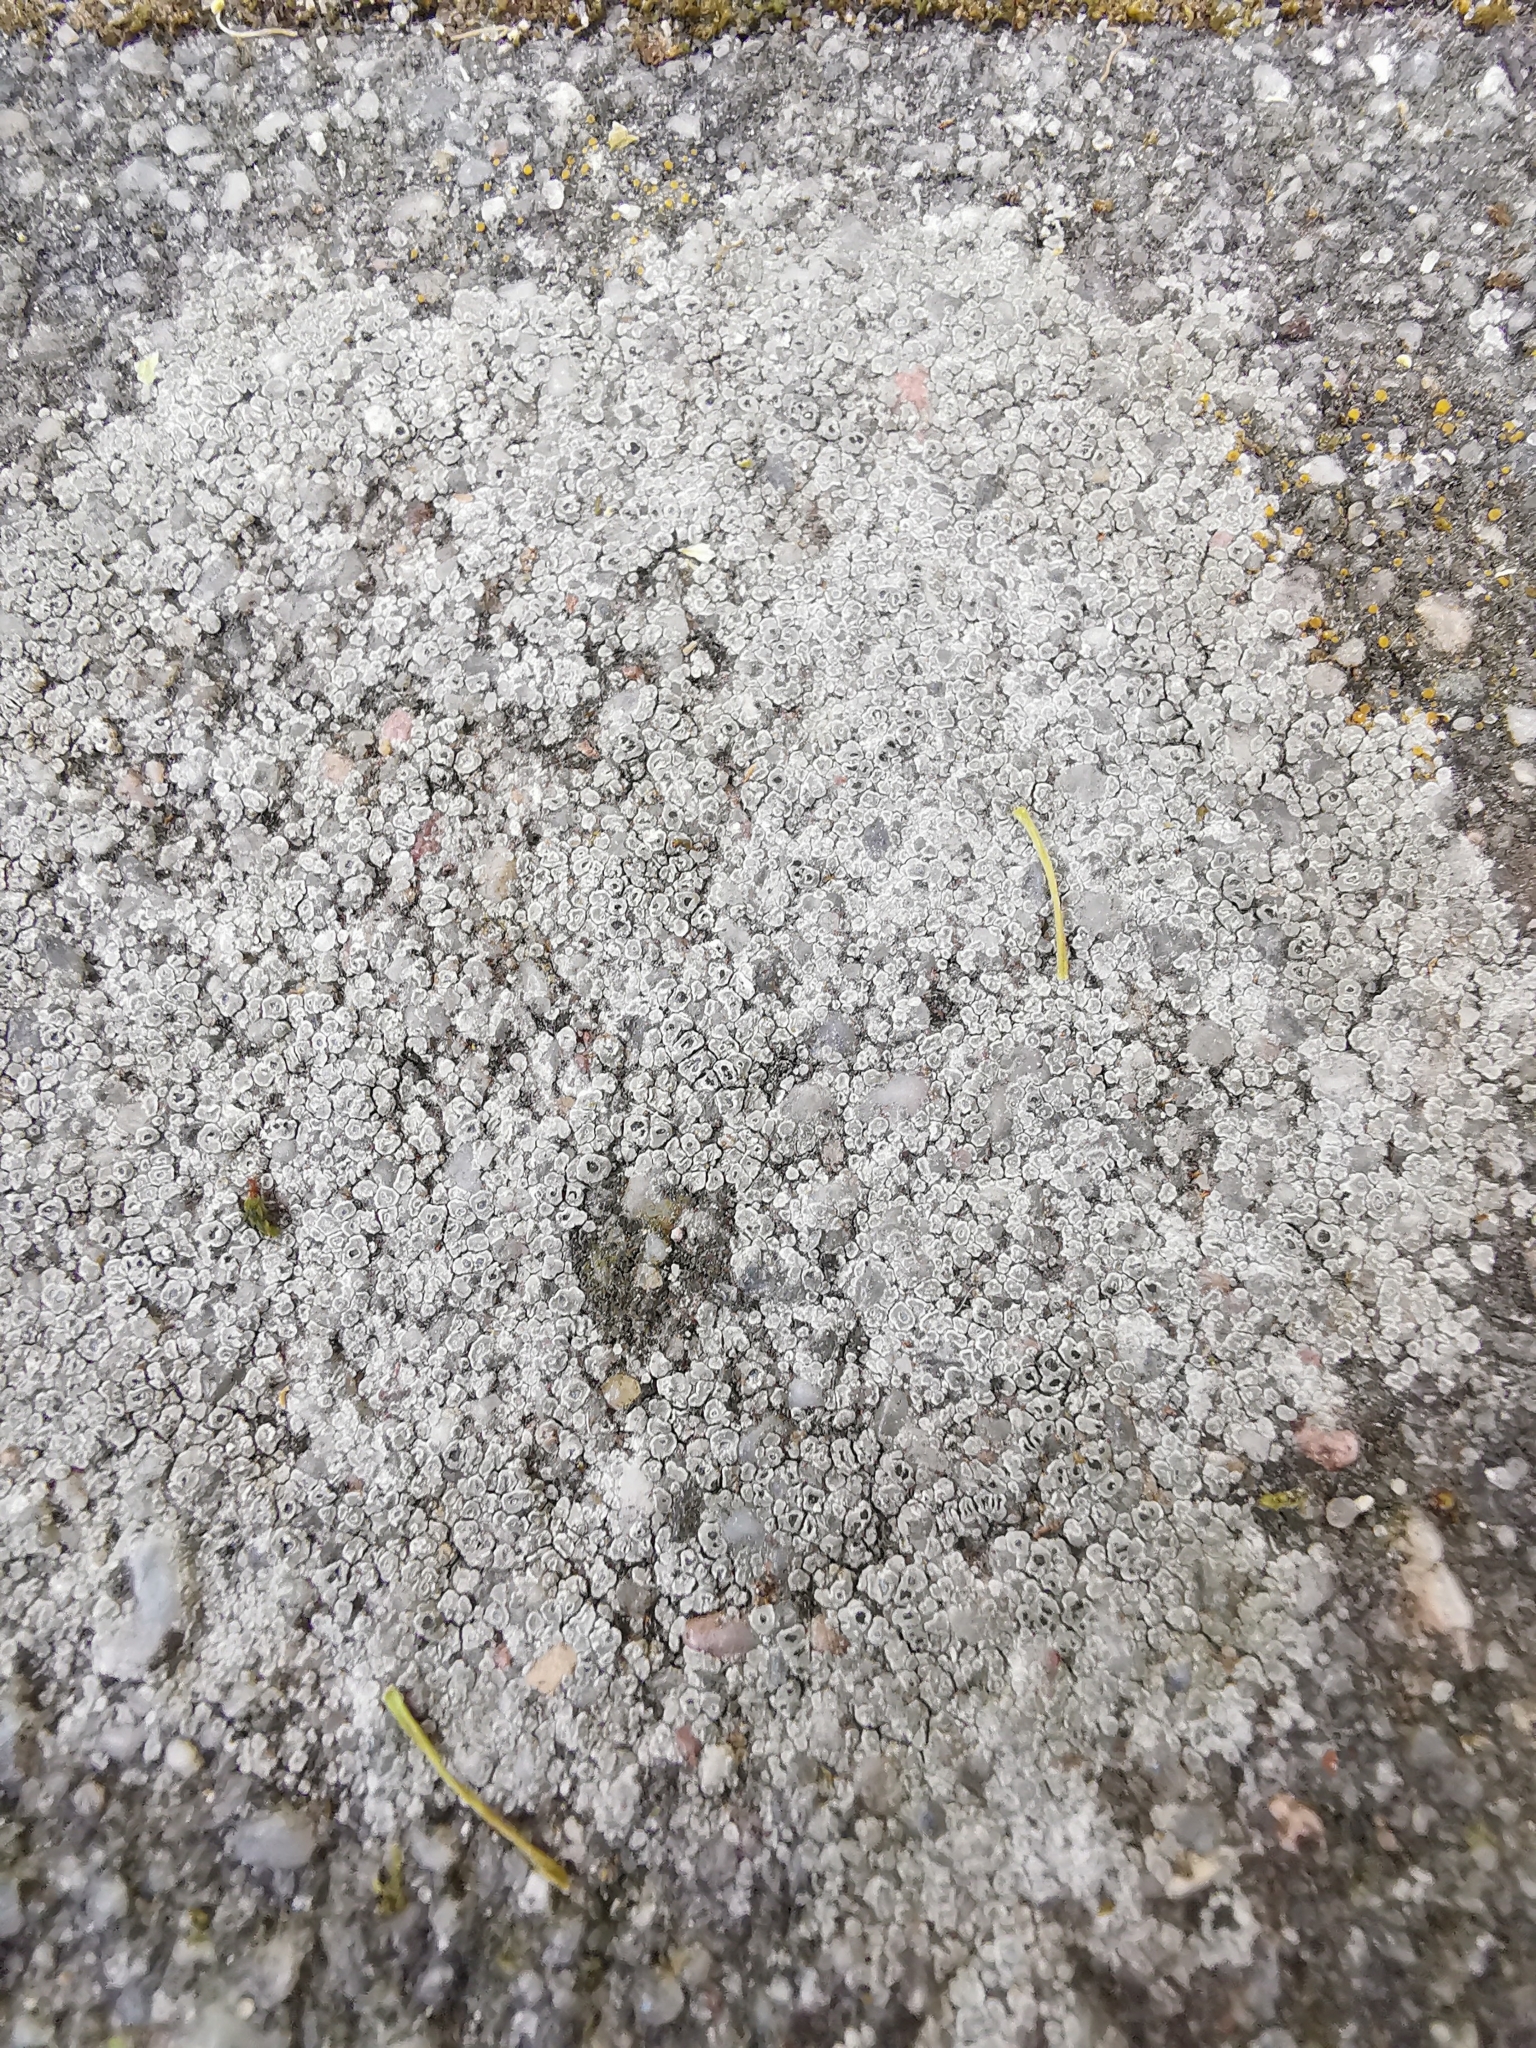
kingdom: Fungi
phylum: Ascomycota
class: Lecanoromycetes
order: Pertusariales
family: Megasporaceae
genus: Circinaria
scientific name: Circinaria contorta
